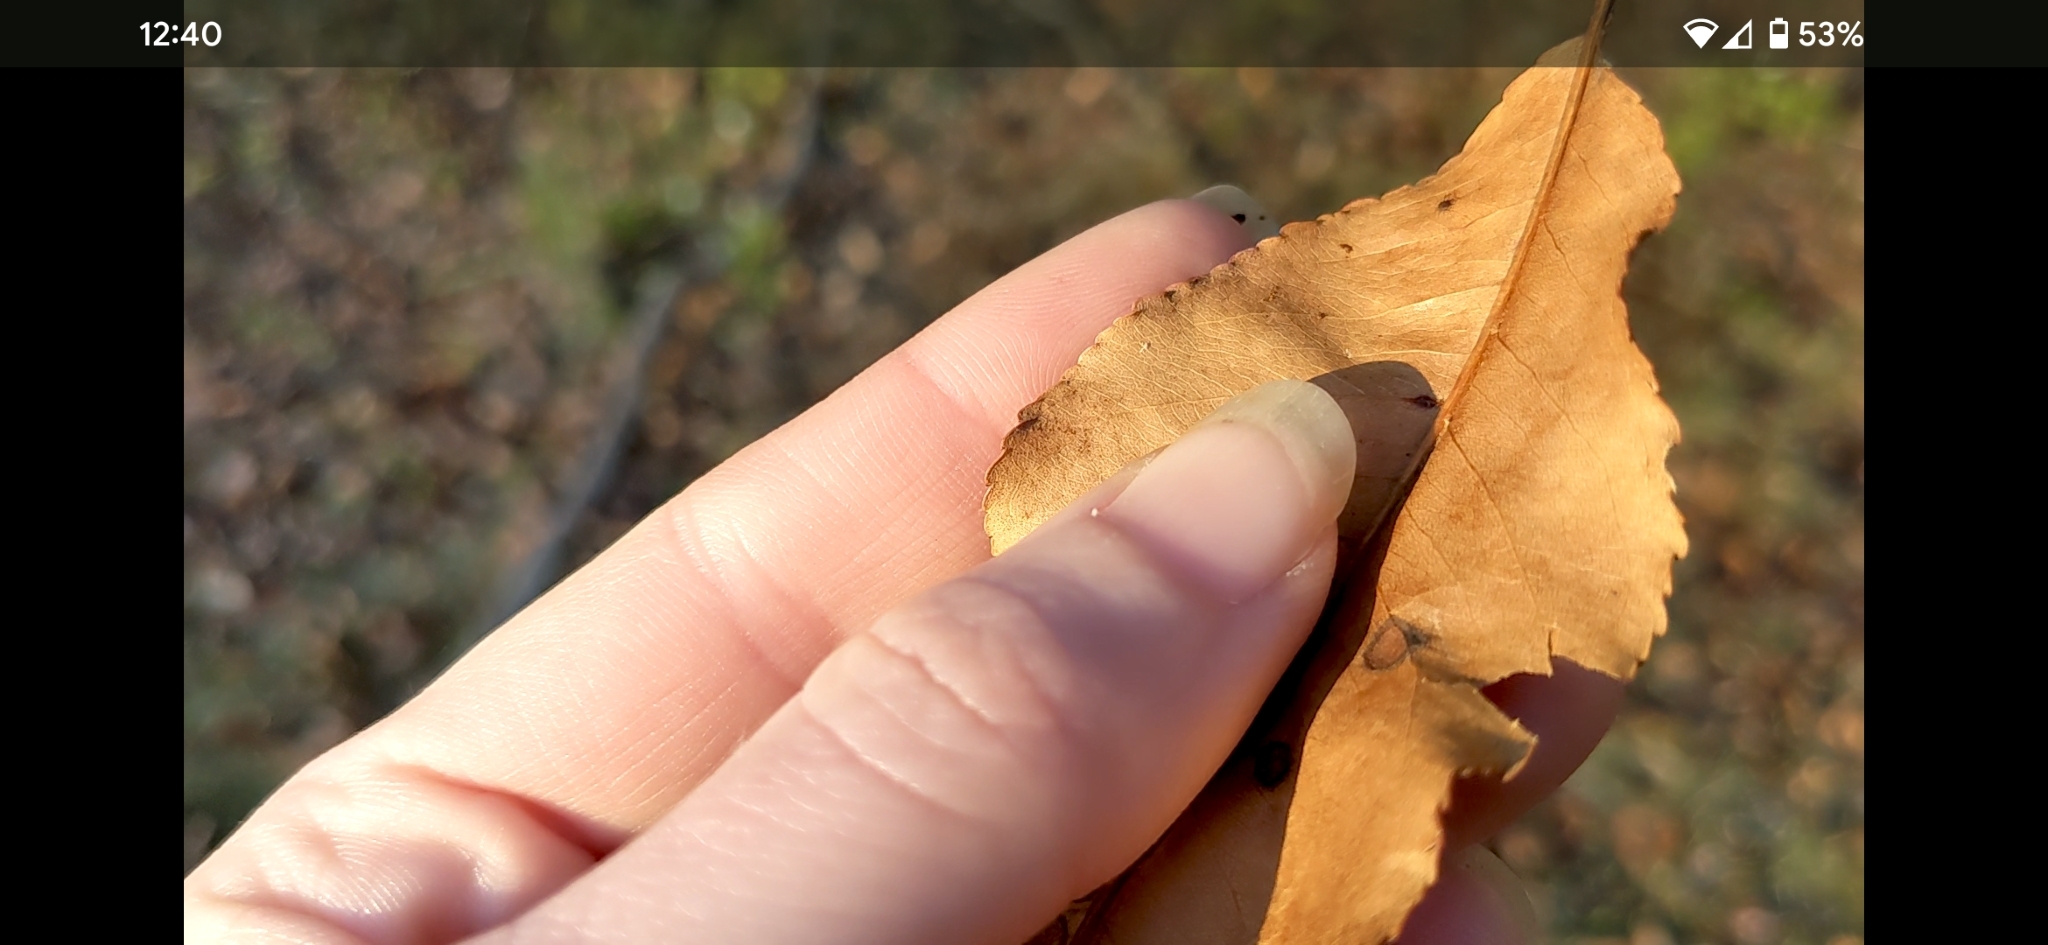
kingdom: Plantae
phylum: Tracheophyta
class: Magnoliopsida
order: Rosales
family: Rosaceae
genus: Prunus
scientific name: Prunus serotina
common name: Black cherry
